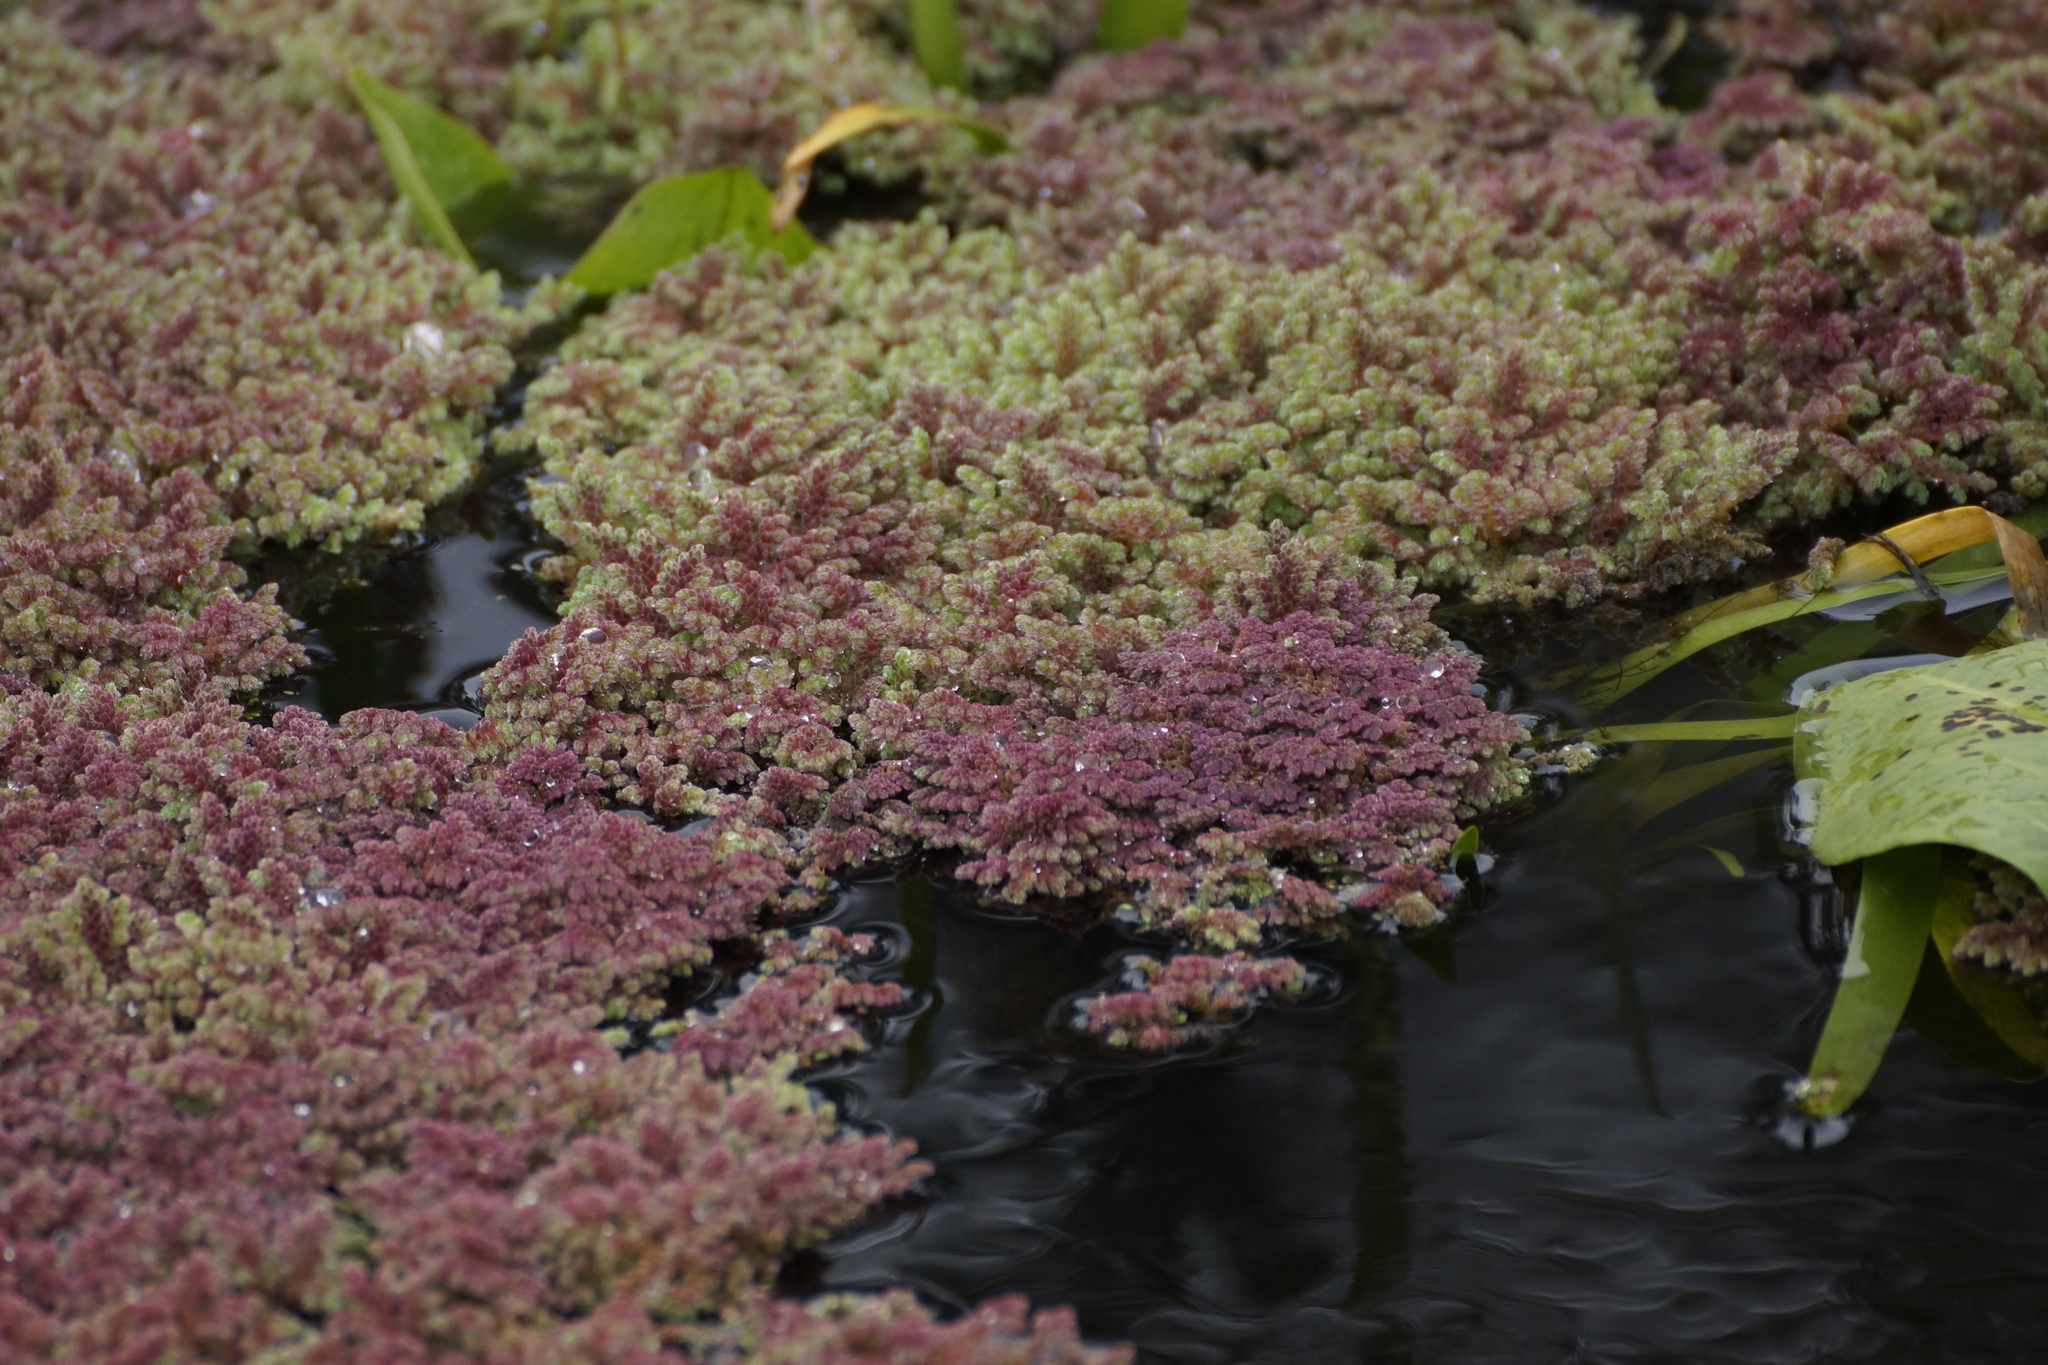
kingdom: Plantae
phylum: Tracheophyta
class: Polypodiopsida
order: Salviniales
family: Salviniaceae
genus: Azolla
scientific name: Azolla rubra
